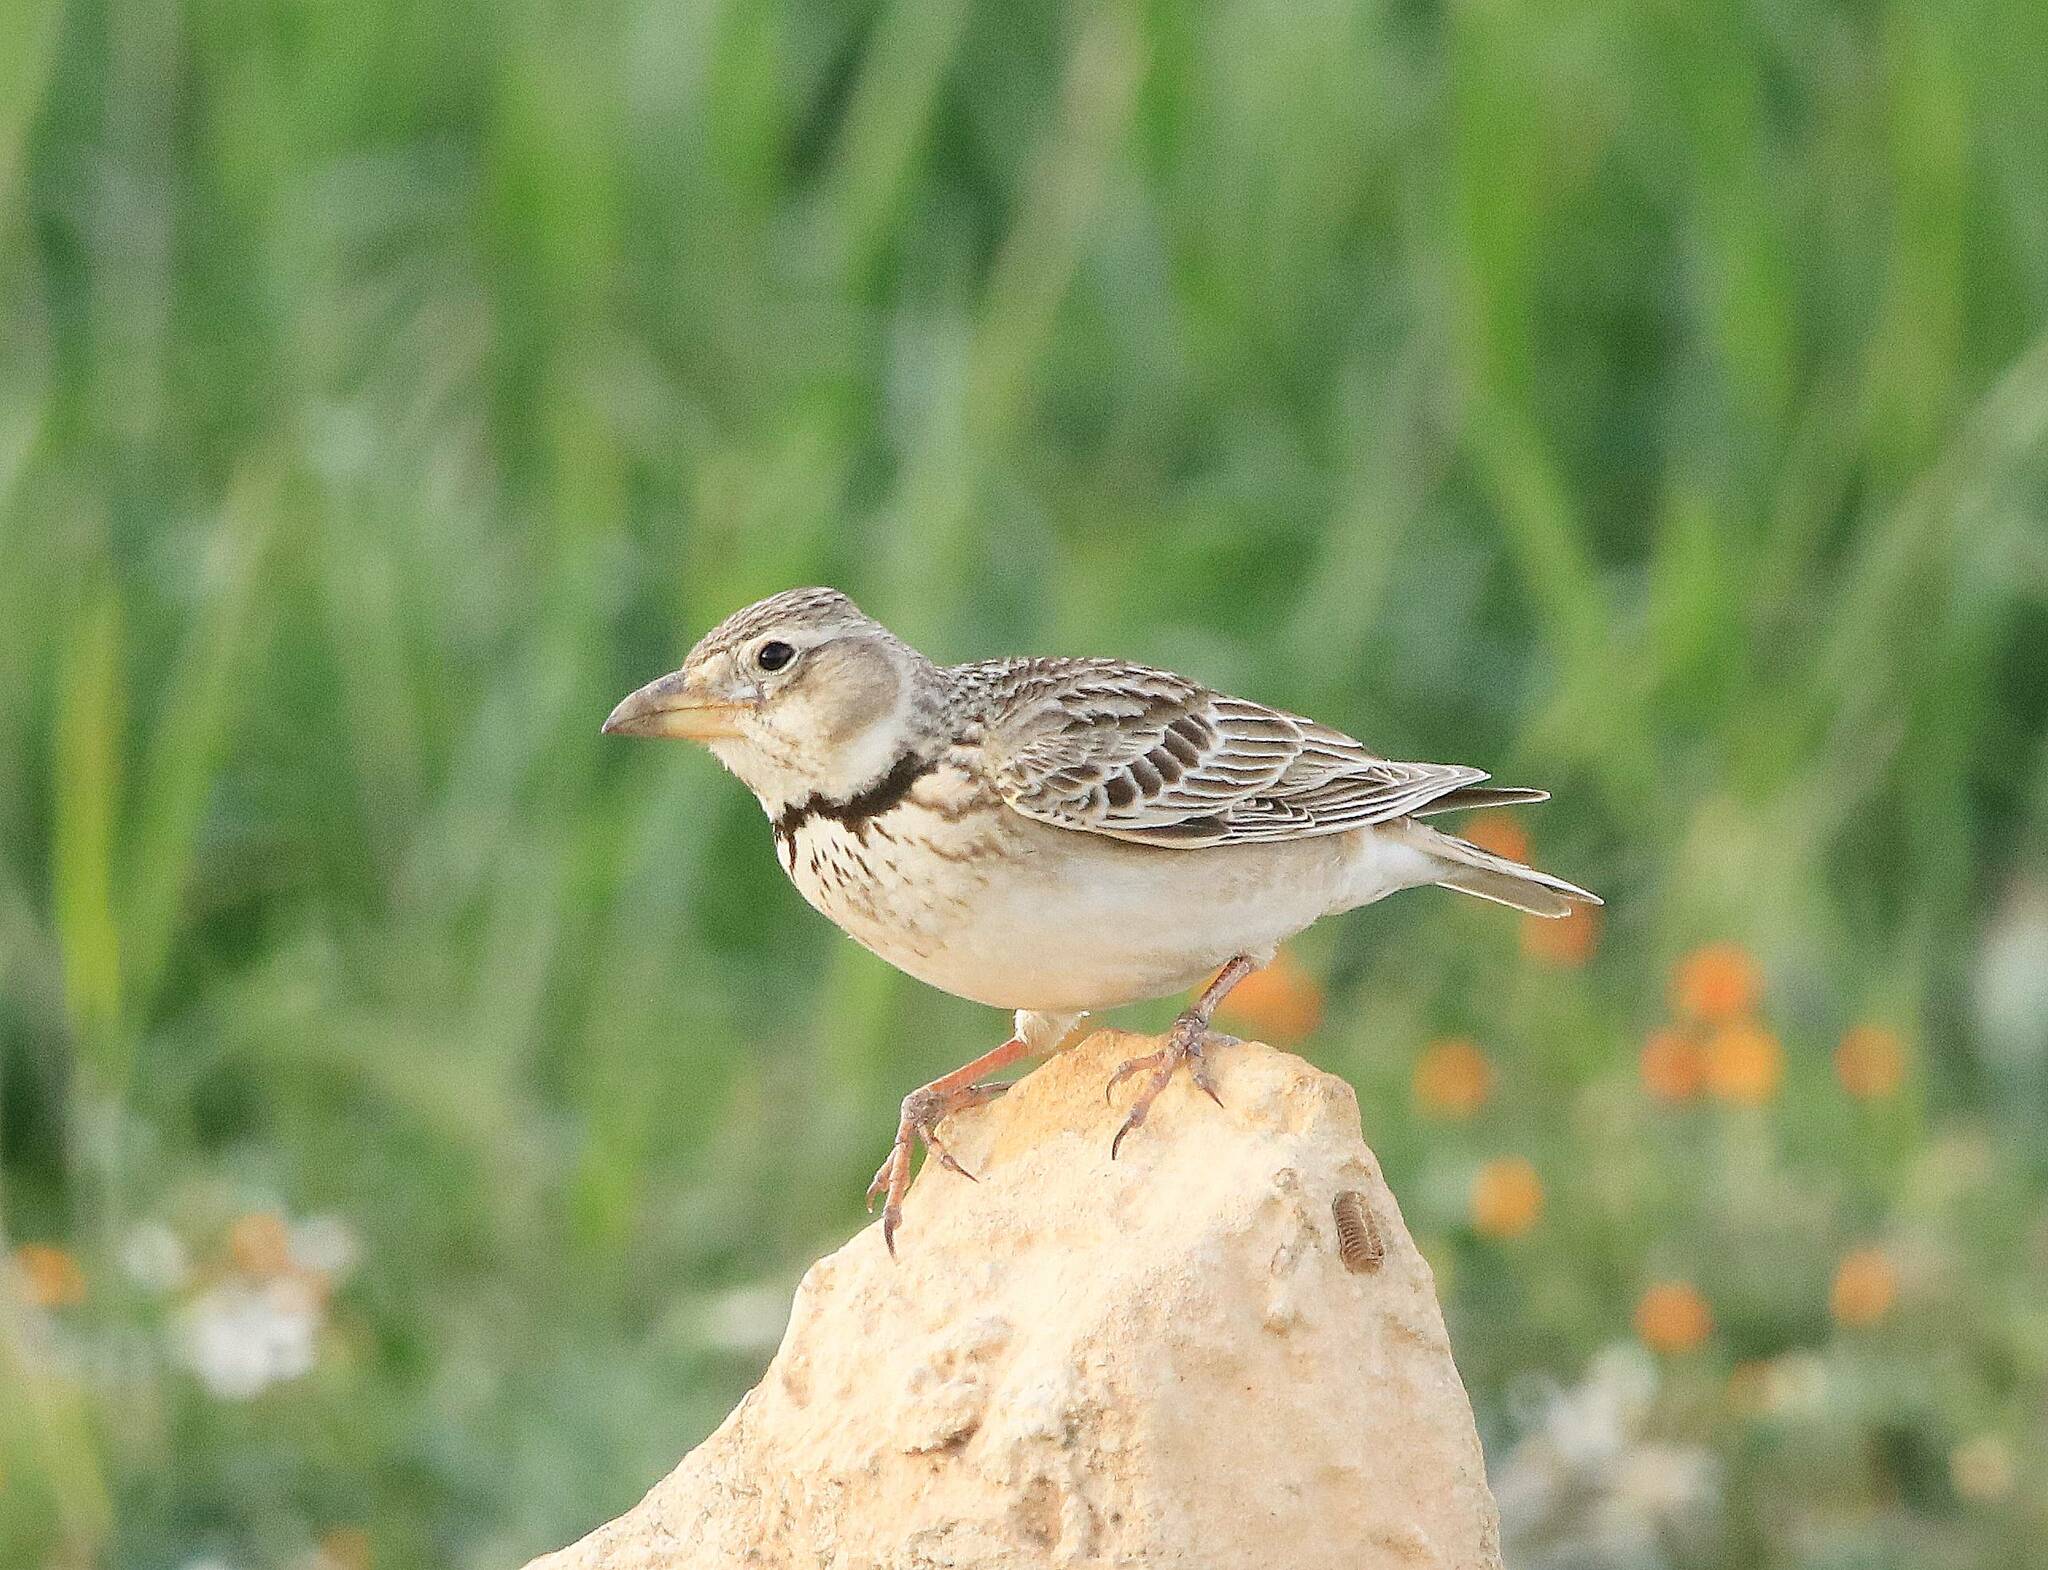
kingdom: Animalia
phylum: Chordata
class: Aves
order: Passeriformes
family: Alaudidae
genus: Melanocorypha
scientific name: Melanocorypha calandra
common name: Calandra lark
